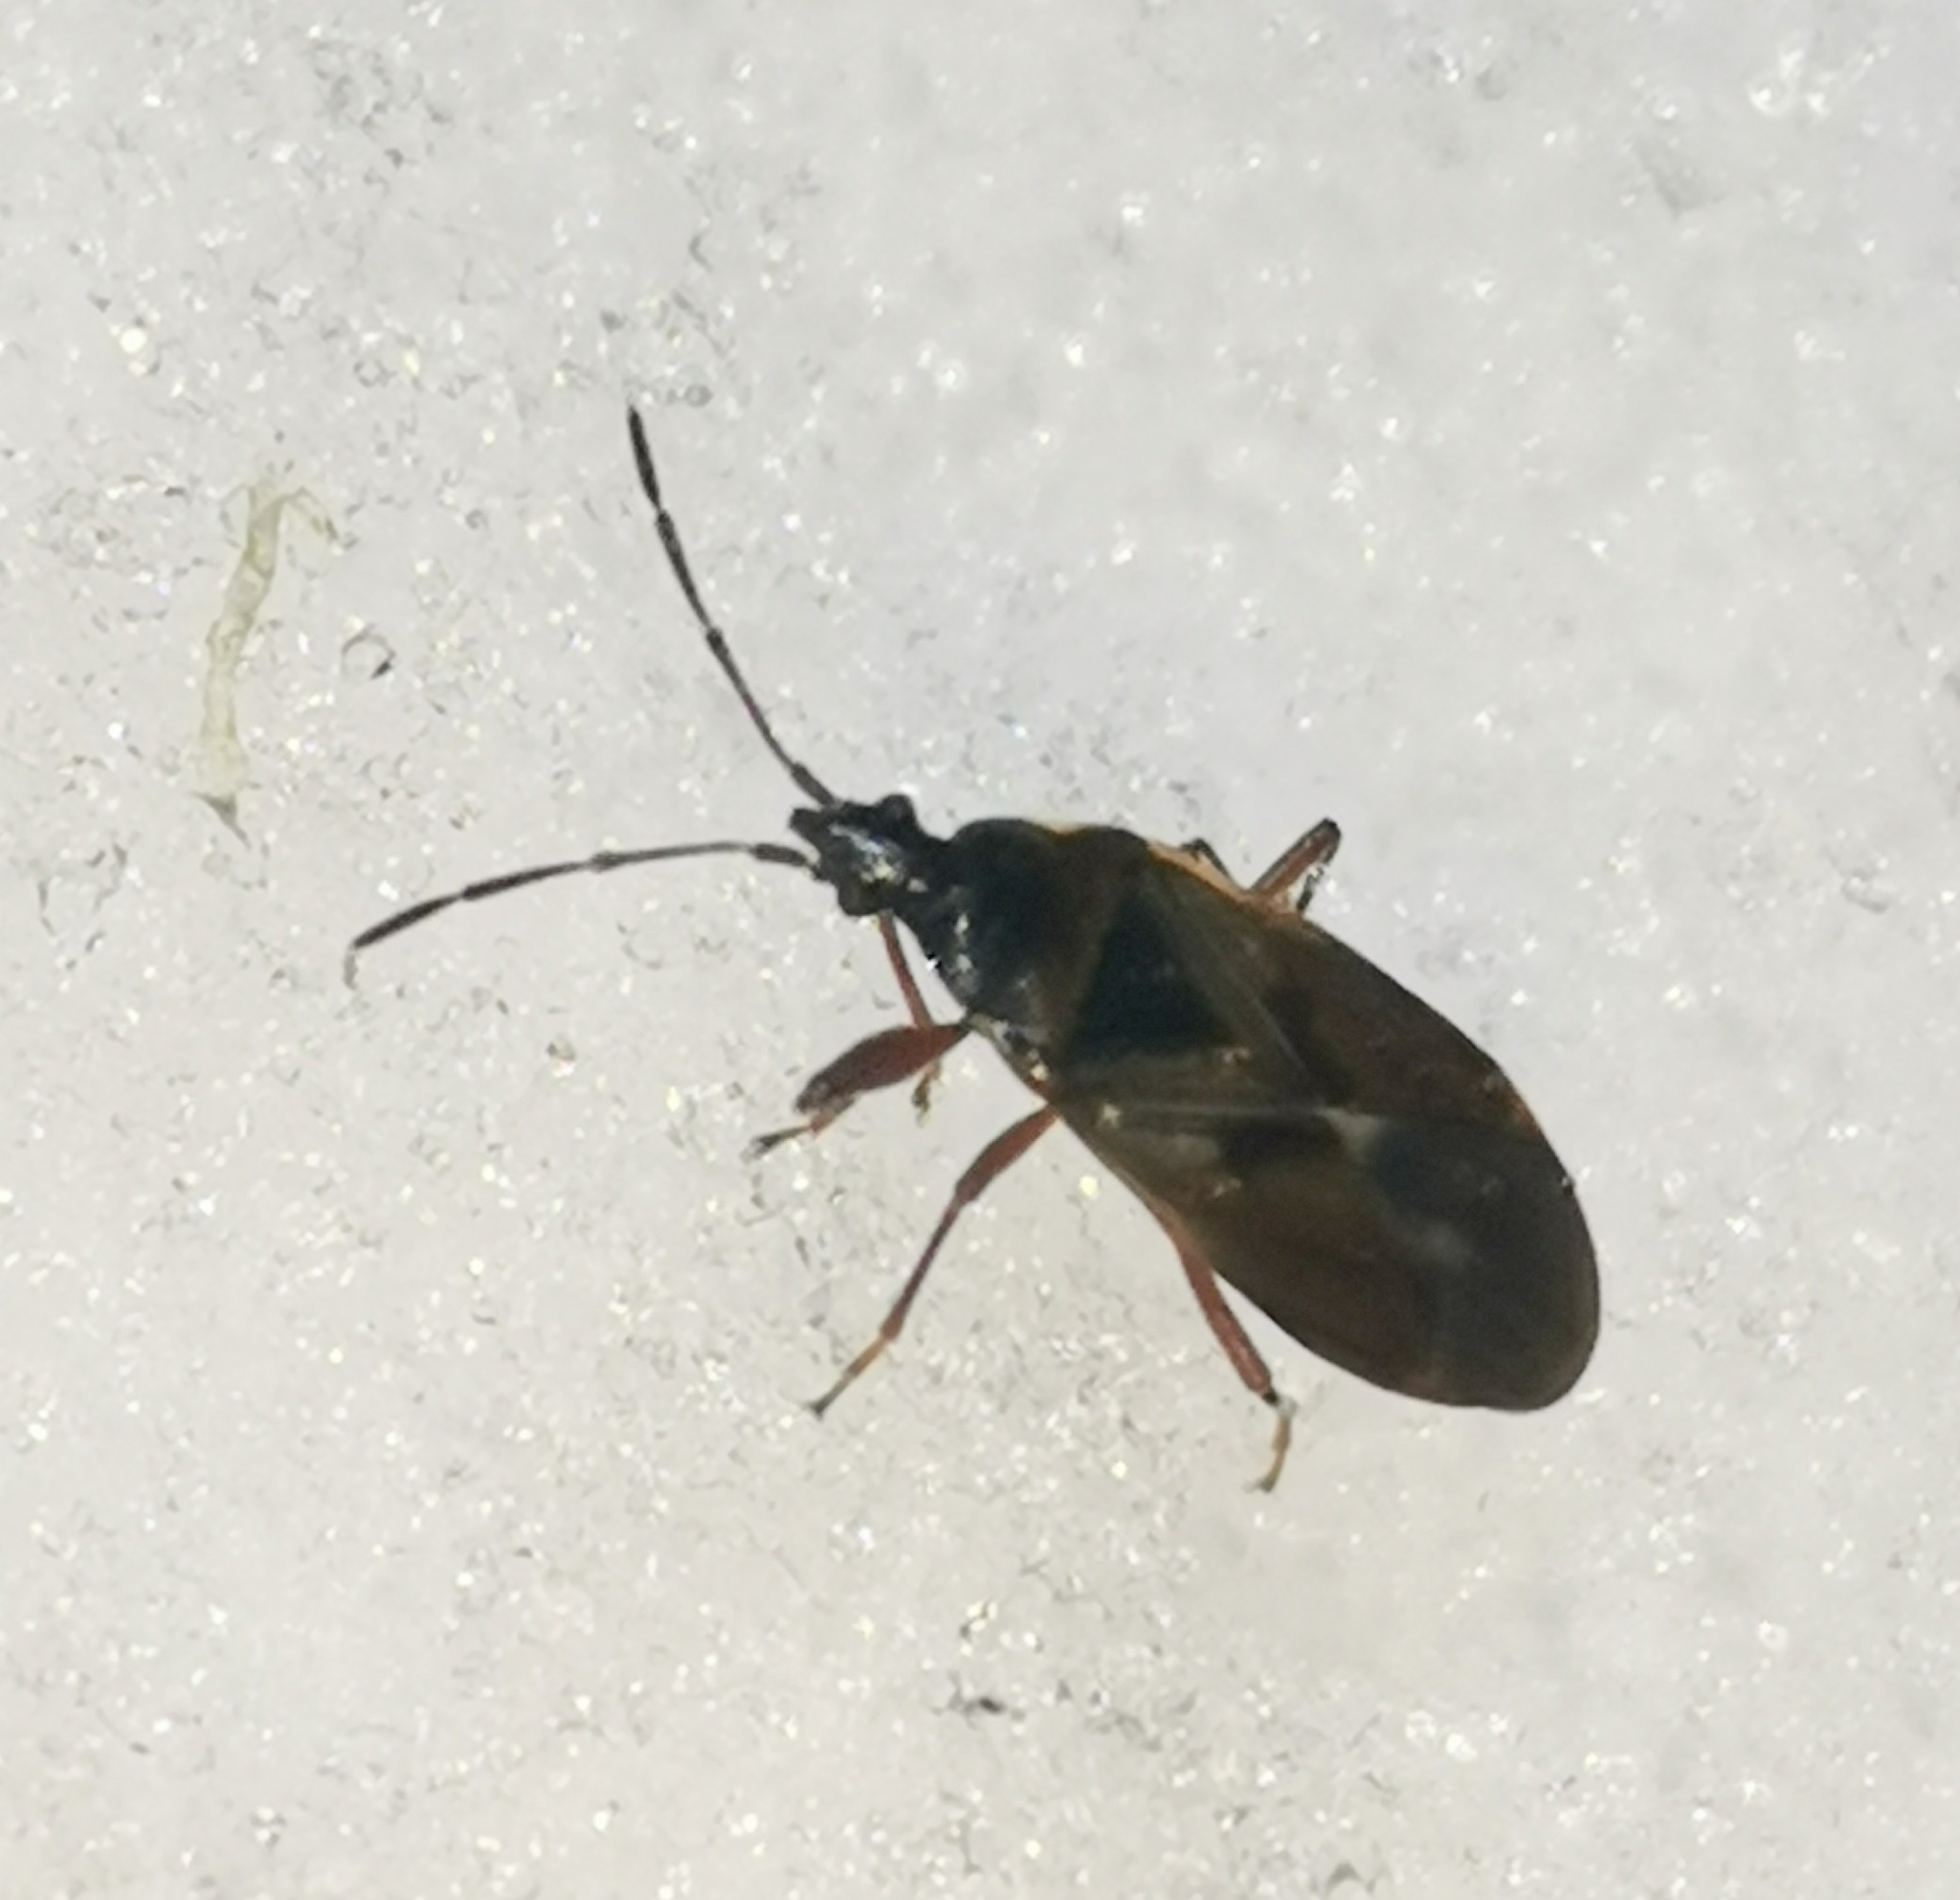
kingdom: Animalia
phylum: Arthropoda
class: Insecta
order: Hemiptera
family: Rhyparochromidae
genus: Gastrodes
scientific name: Gastrodes abietum
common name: Spruce cone bug
